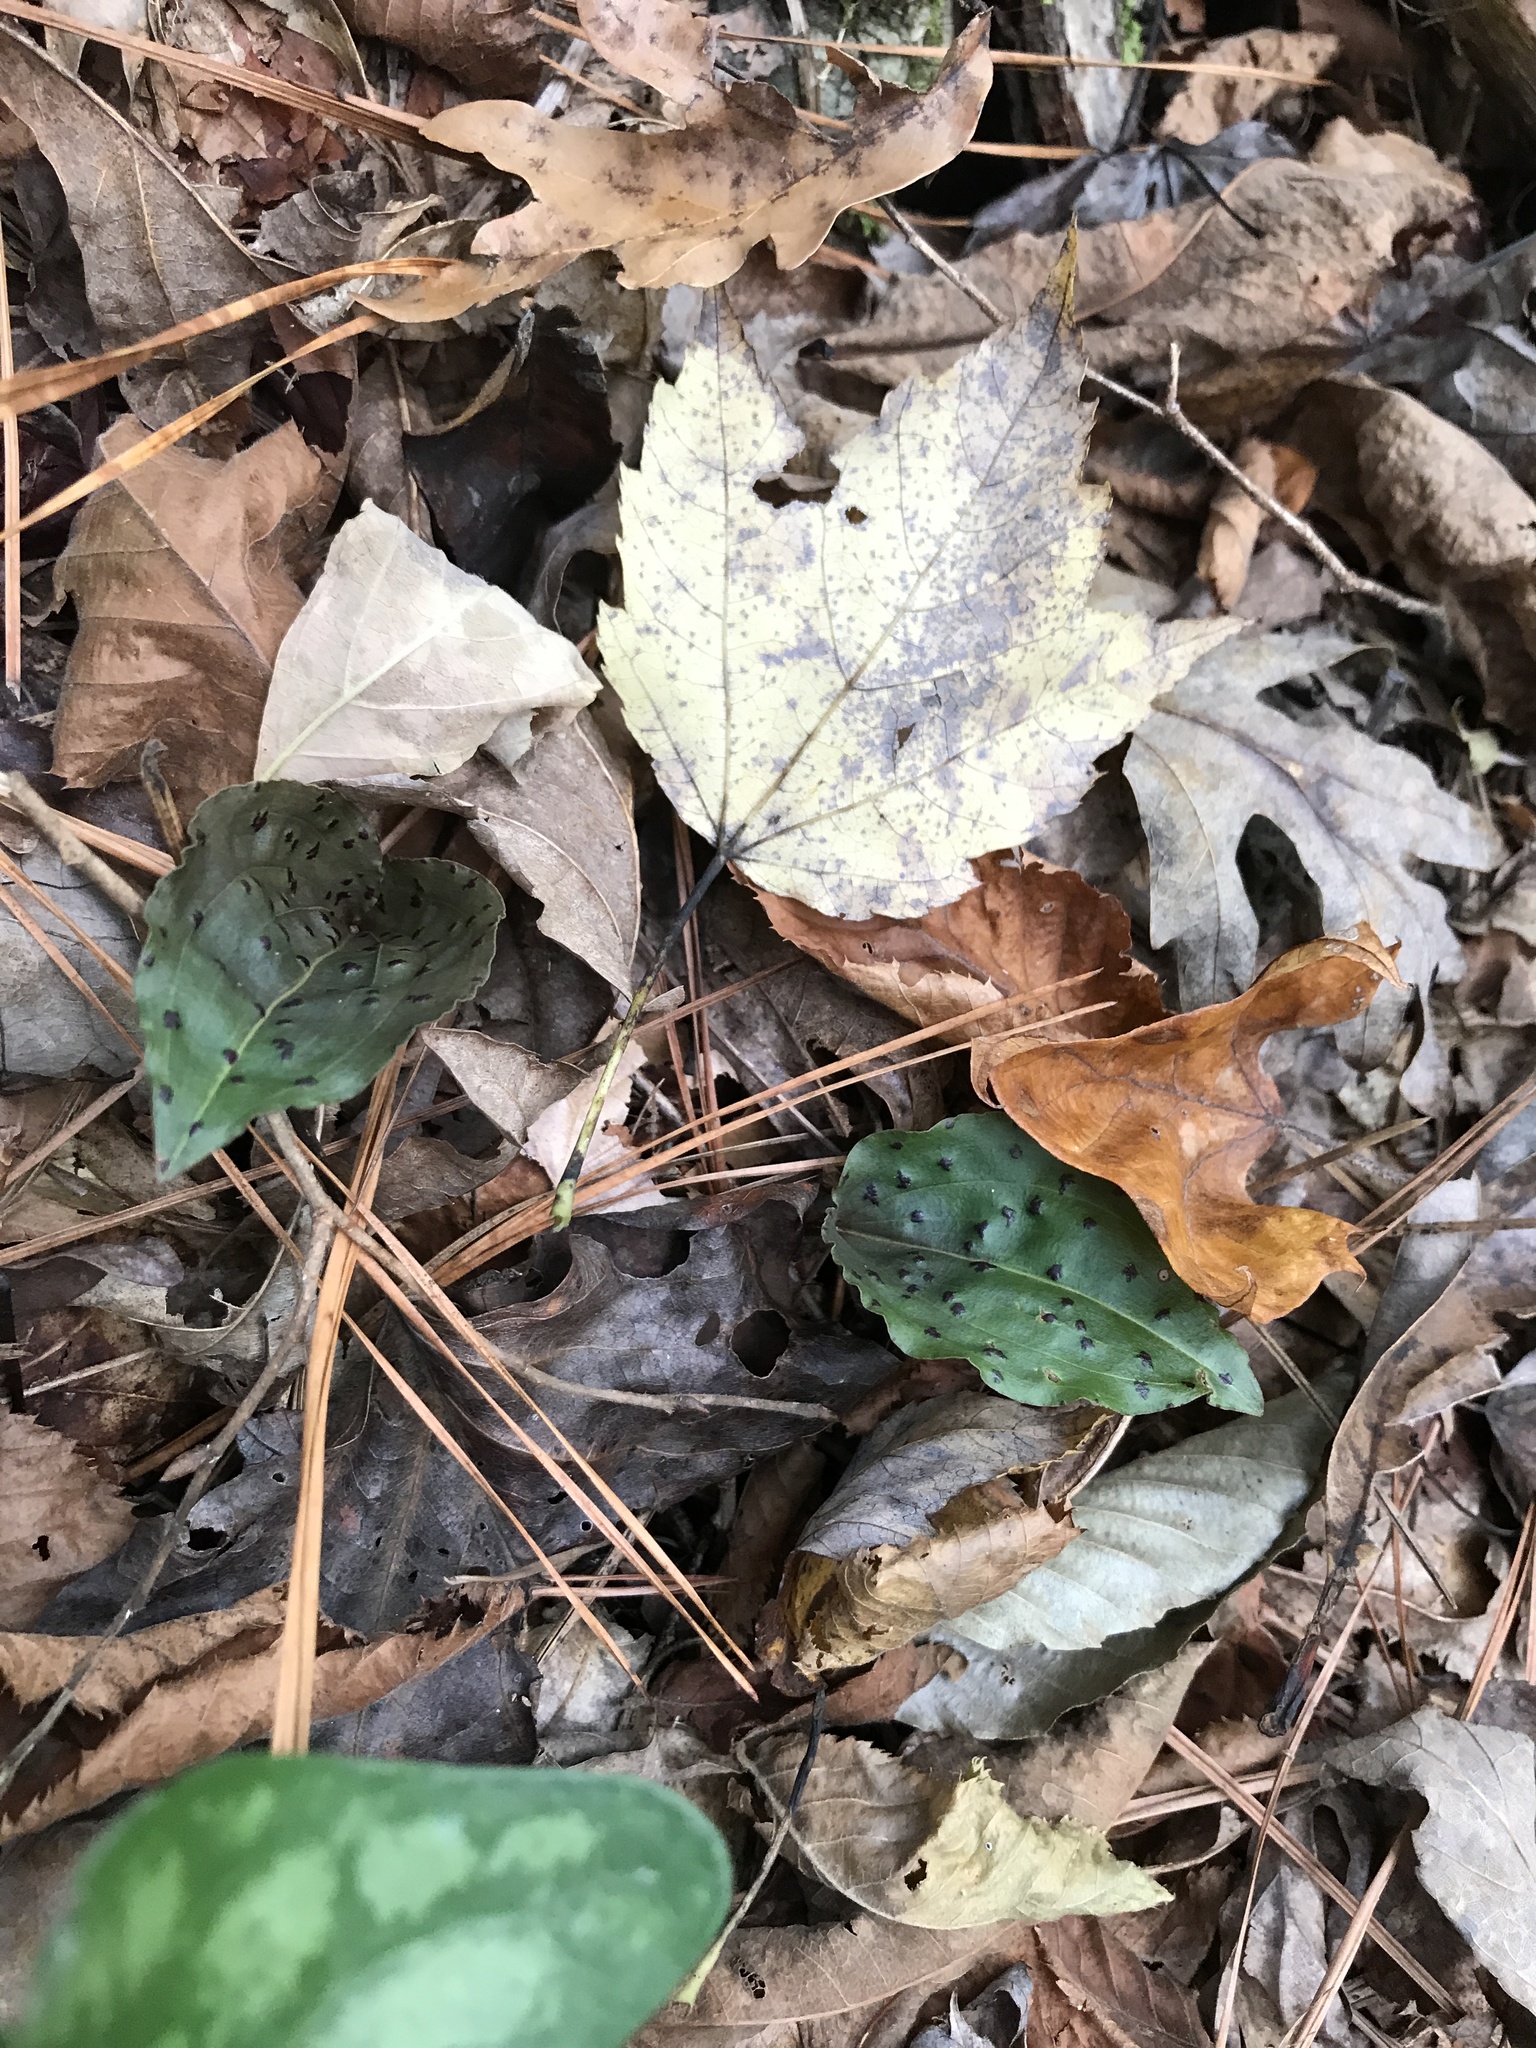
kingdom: Plantae
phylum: Tracheophyta
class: Liliopsida
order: Asparagales
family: Orchidaceae
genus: Tipularia
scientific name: Tipularia discolor
